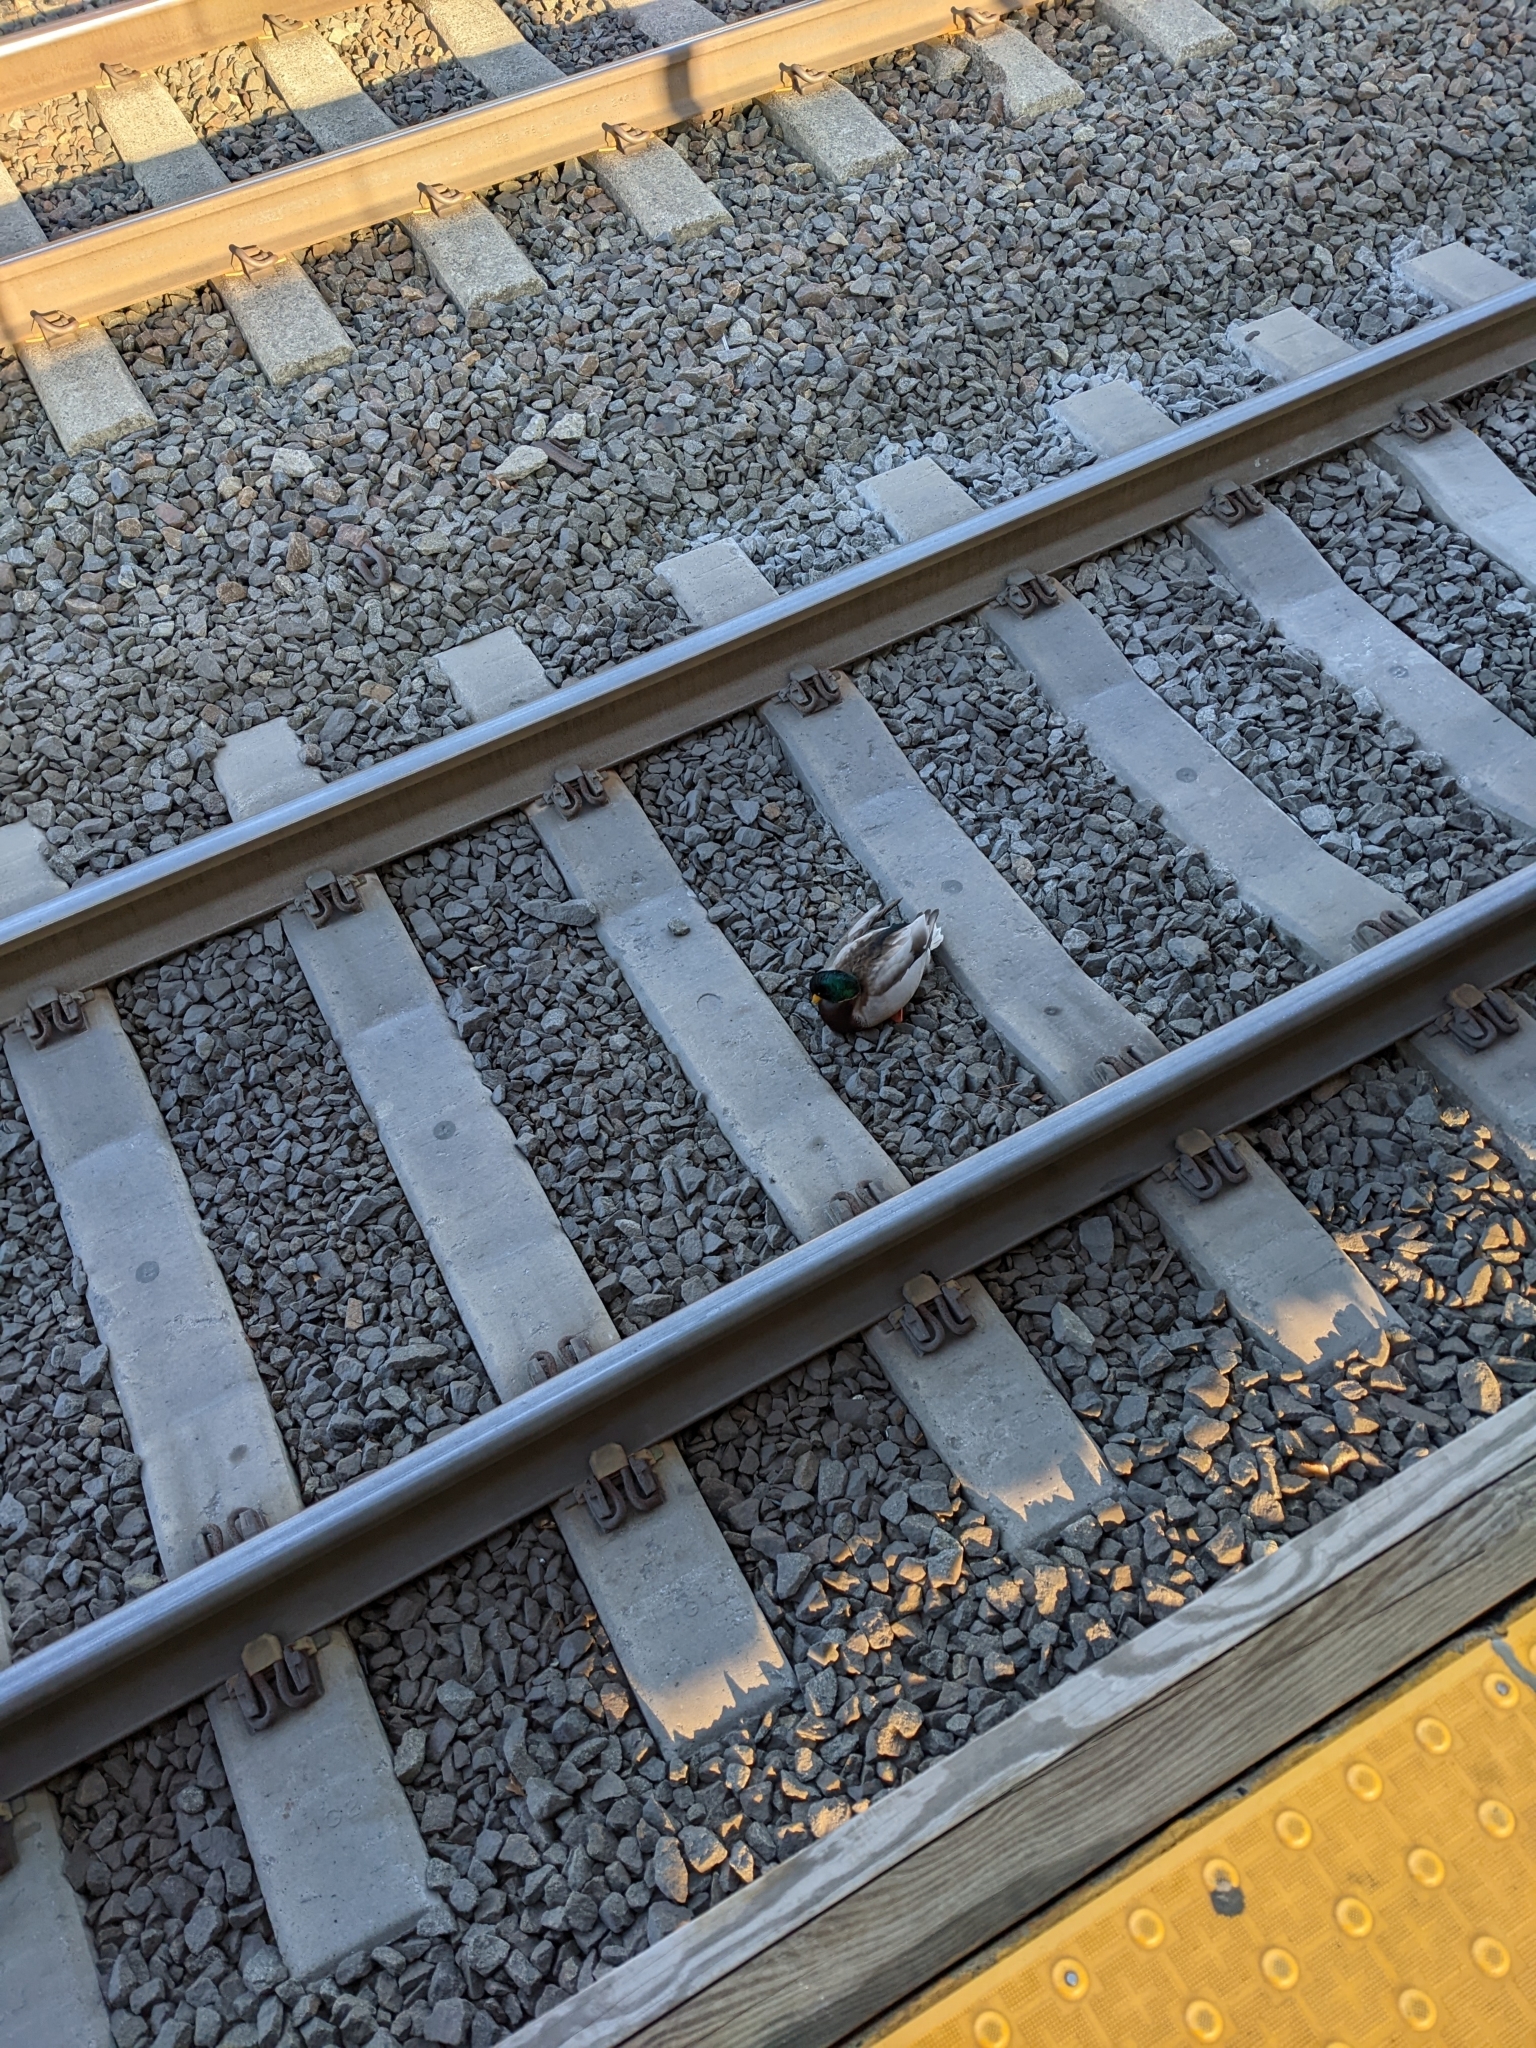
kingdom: Animalia
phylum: Chordata
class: Aves
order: Anseriformes
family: Anatidae
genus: Anas
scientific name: Anas platyrhynchos
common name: Mallard
